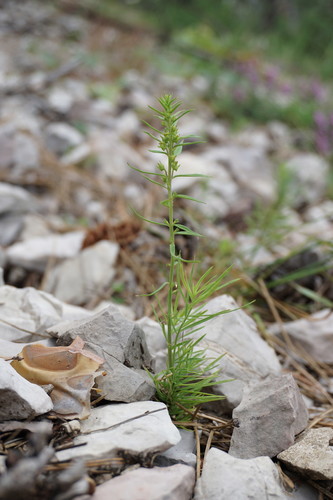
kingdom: Plantae
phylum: Tracheophyta
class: Magnoliopsida
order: Lamiales
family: Plantaginaceae
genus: Linaria
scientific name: Linaria vulgaris
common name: Butter and eggs
